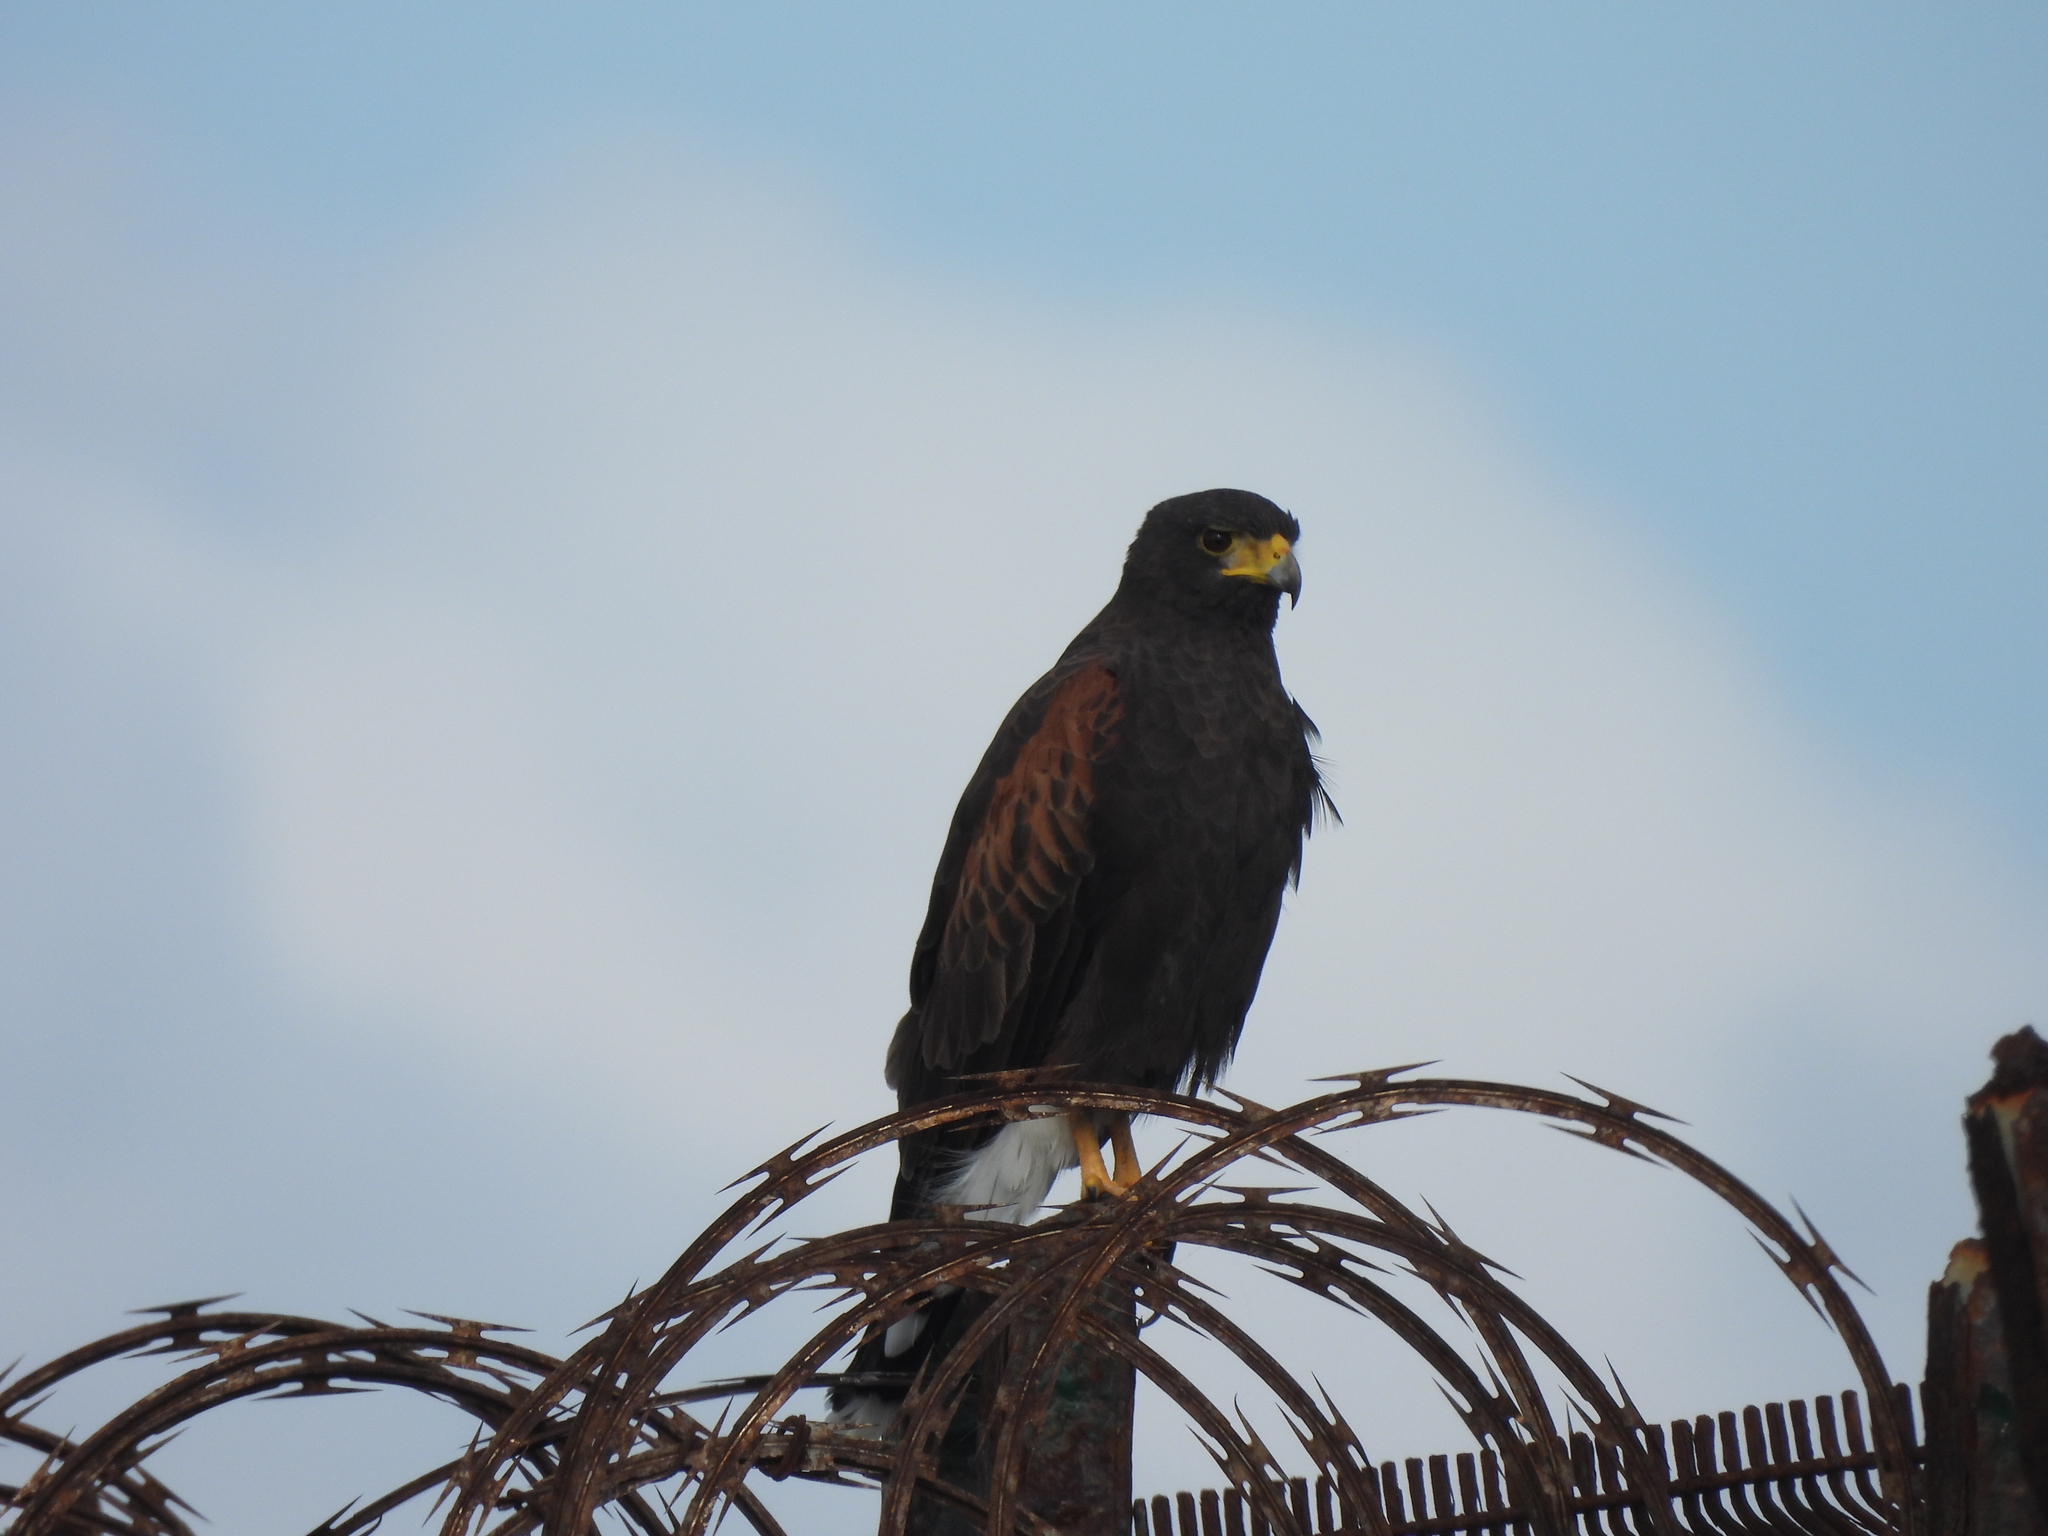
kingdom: Animalia
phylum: Chordata
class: Aves
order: Accipitriformes
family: Accipitridae
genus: Parabuteo
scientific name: Parabuteo unicinctus
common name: Harris's hawk
